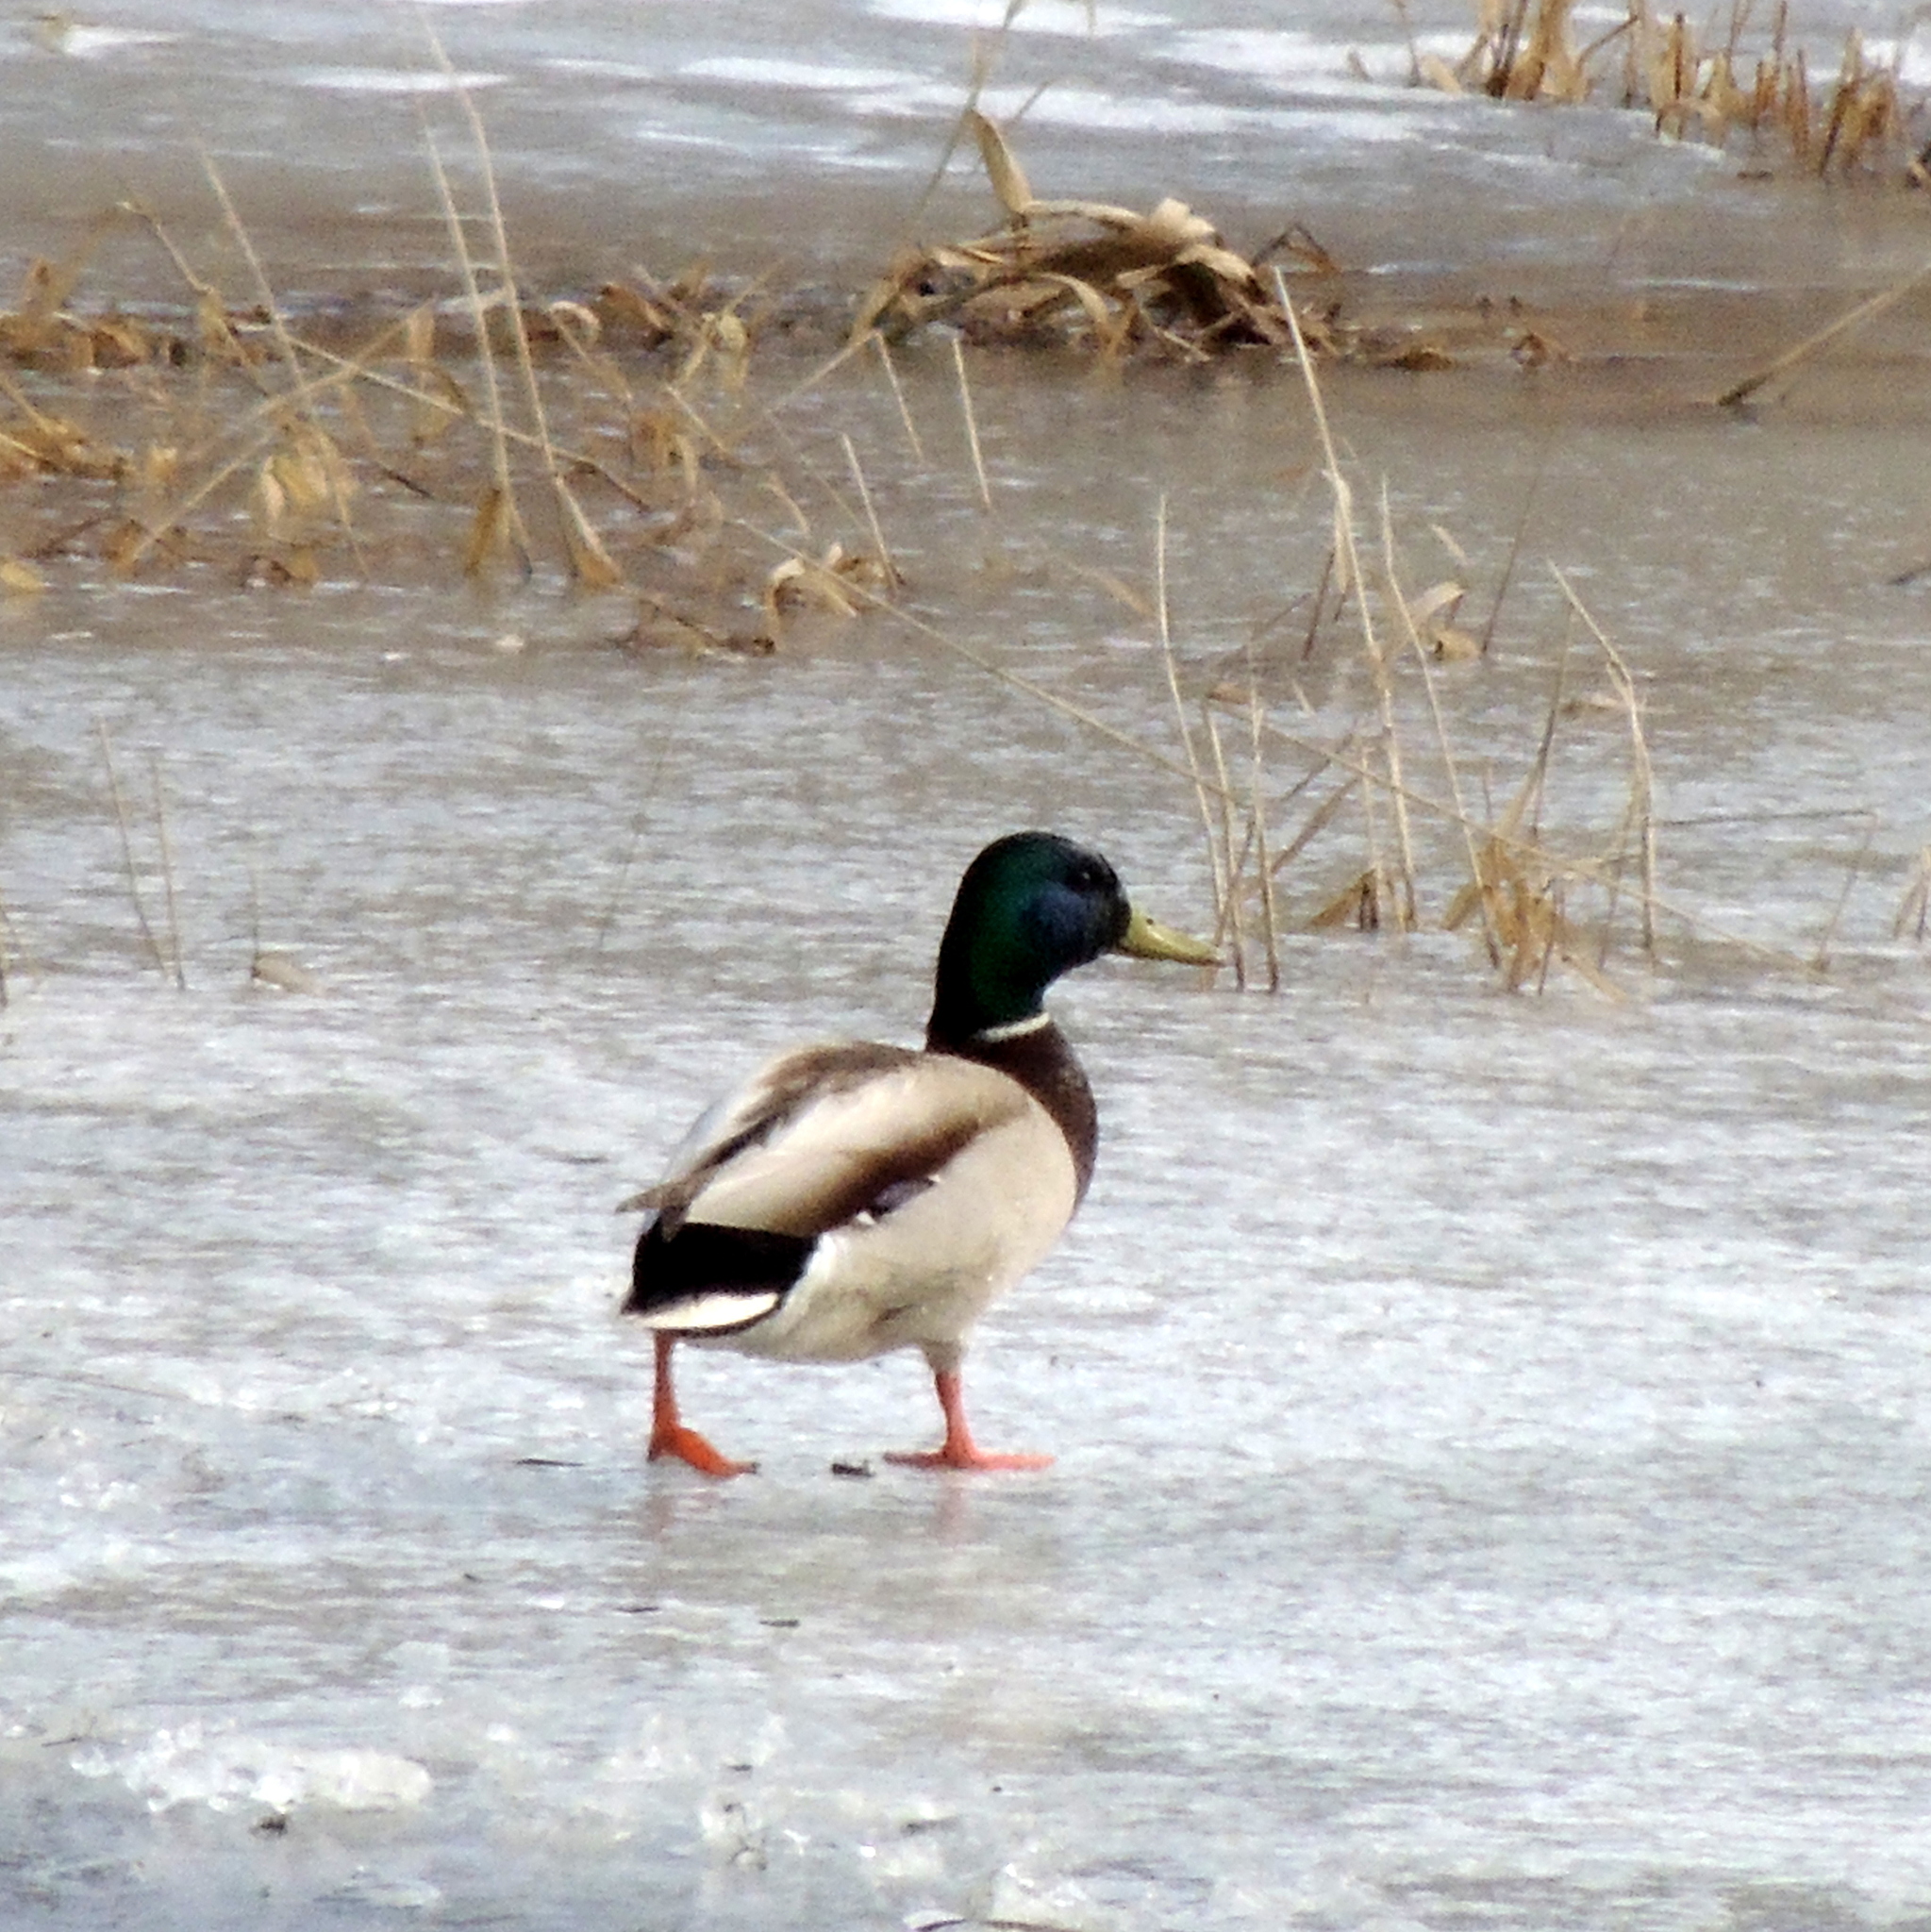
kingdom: Animalia
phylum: Chordata
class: Aves
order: Anseriformes
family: Anatidae
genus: Anas
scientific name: Anas platyrhynchos
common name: Mallard
